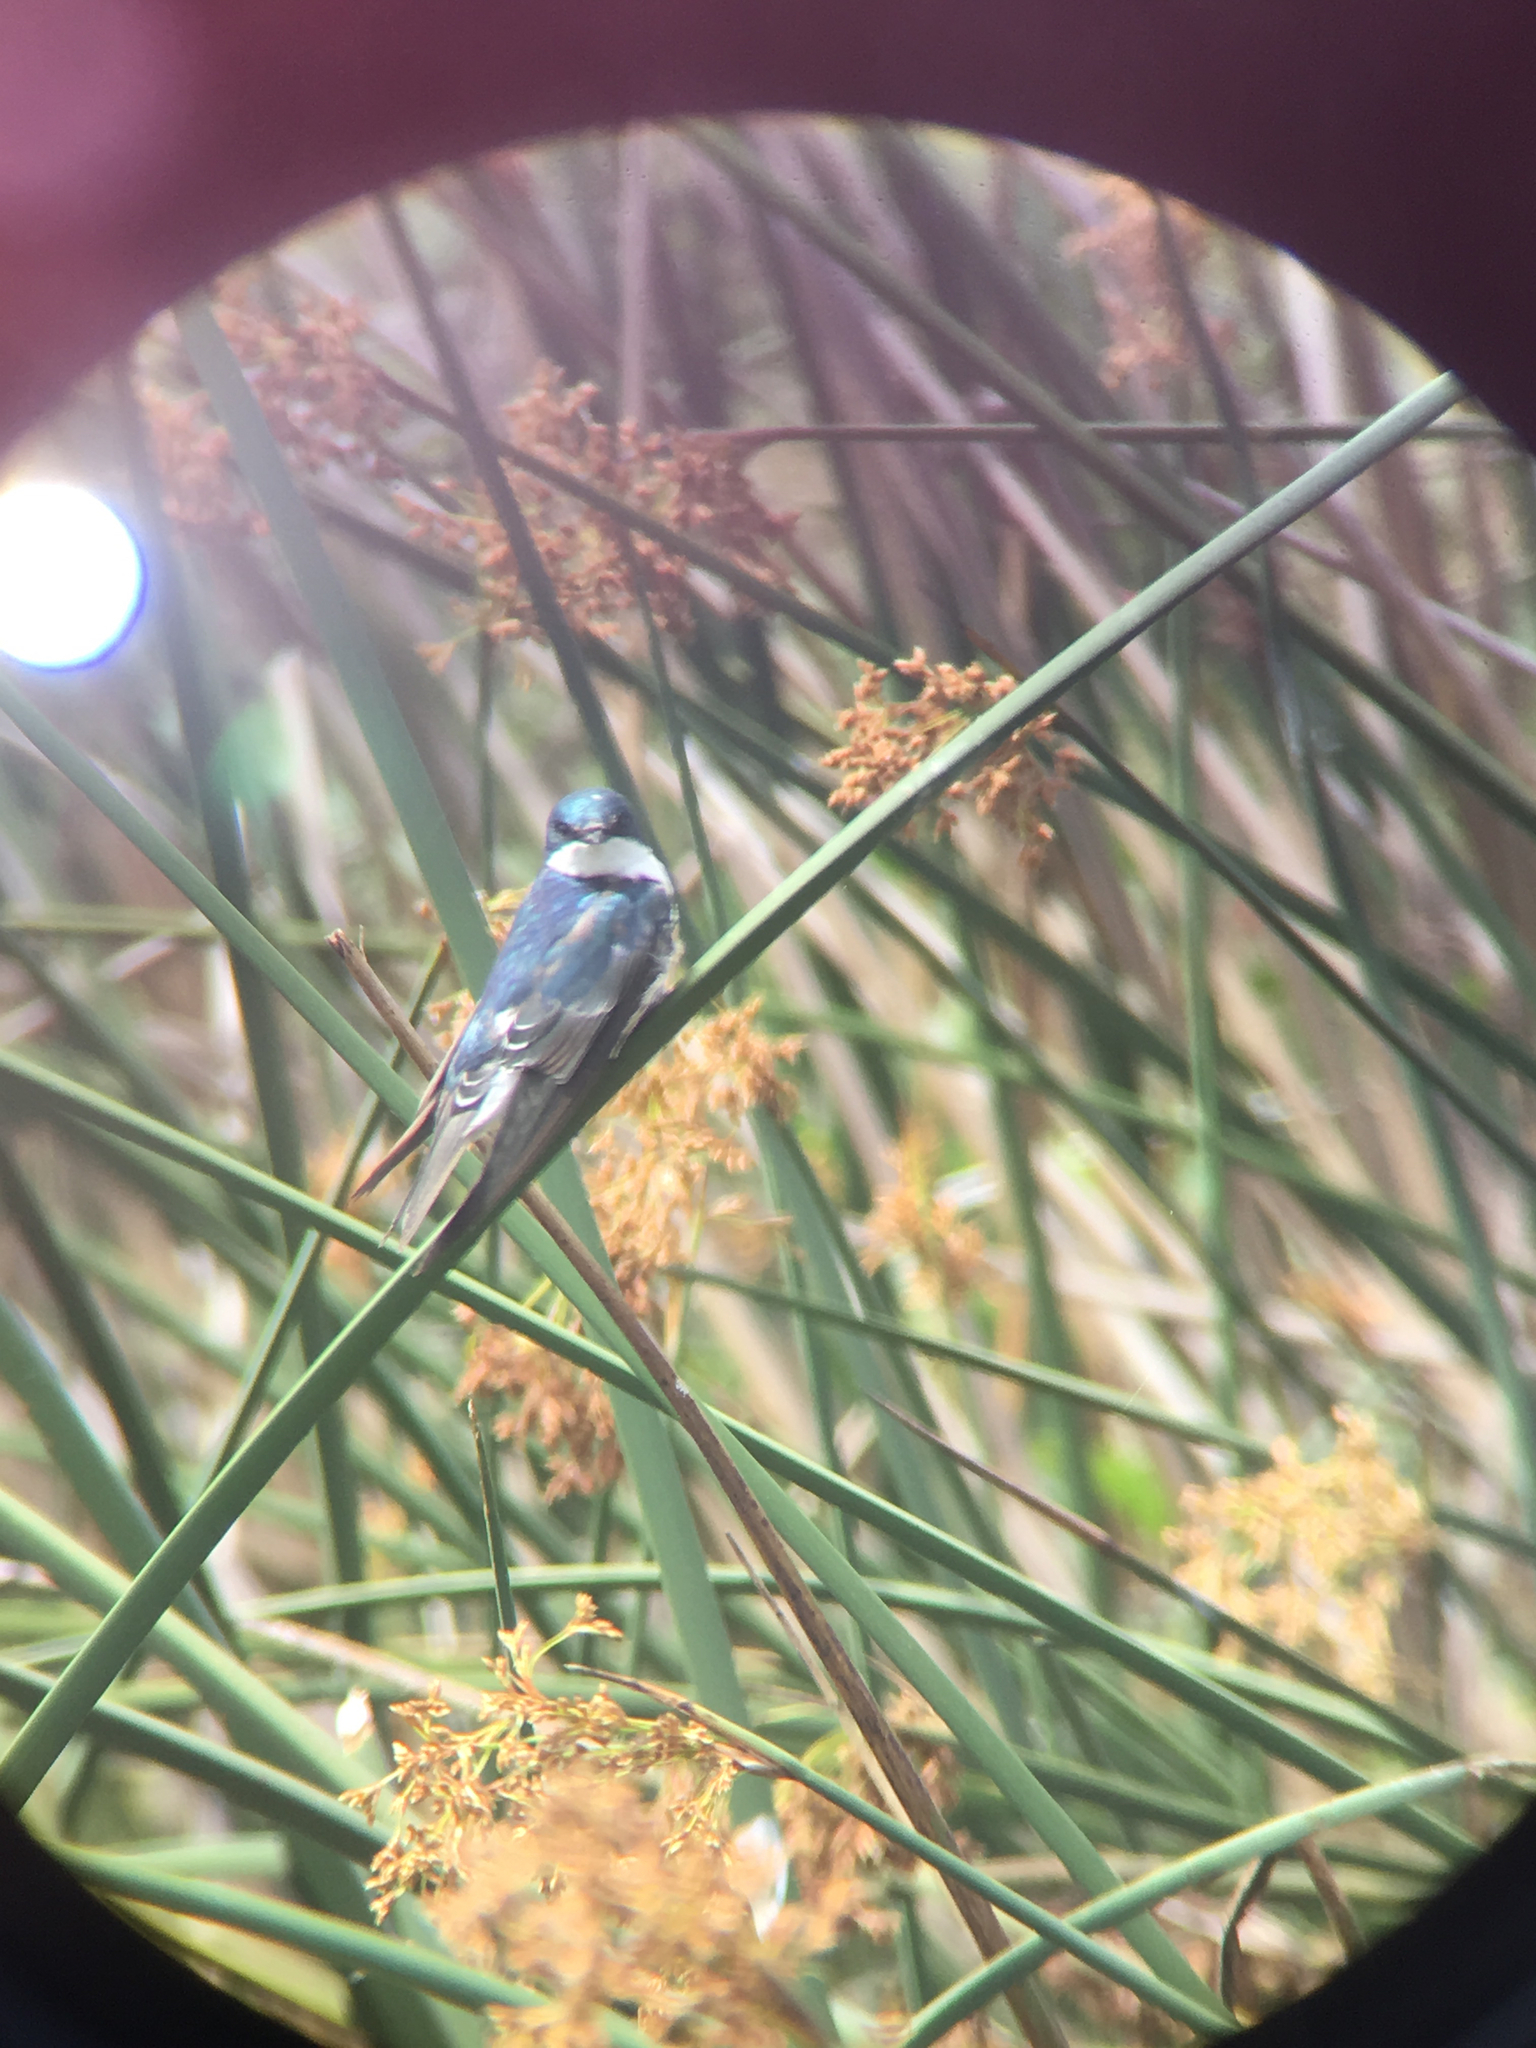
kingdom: Animalia
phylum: Chordata
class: Aves
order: Passeriformes
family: Hirundinidae
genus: Tachycineta
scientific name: Tachycineta bicolor
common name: Tree swallow
